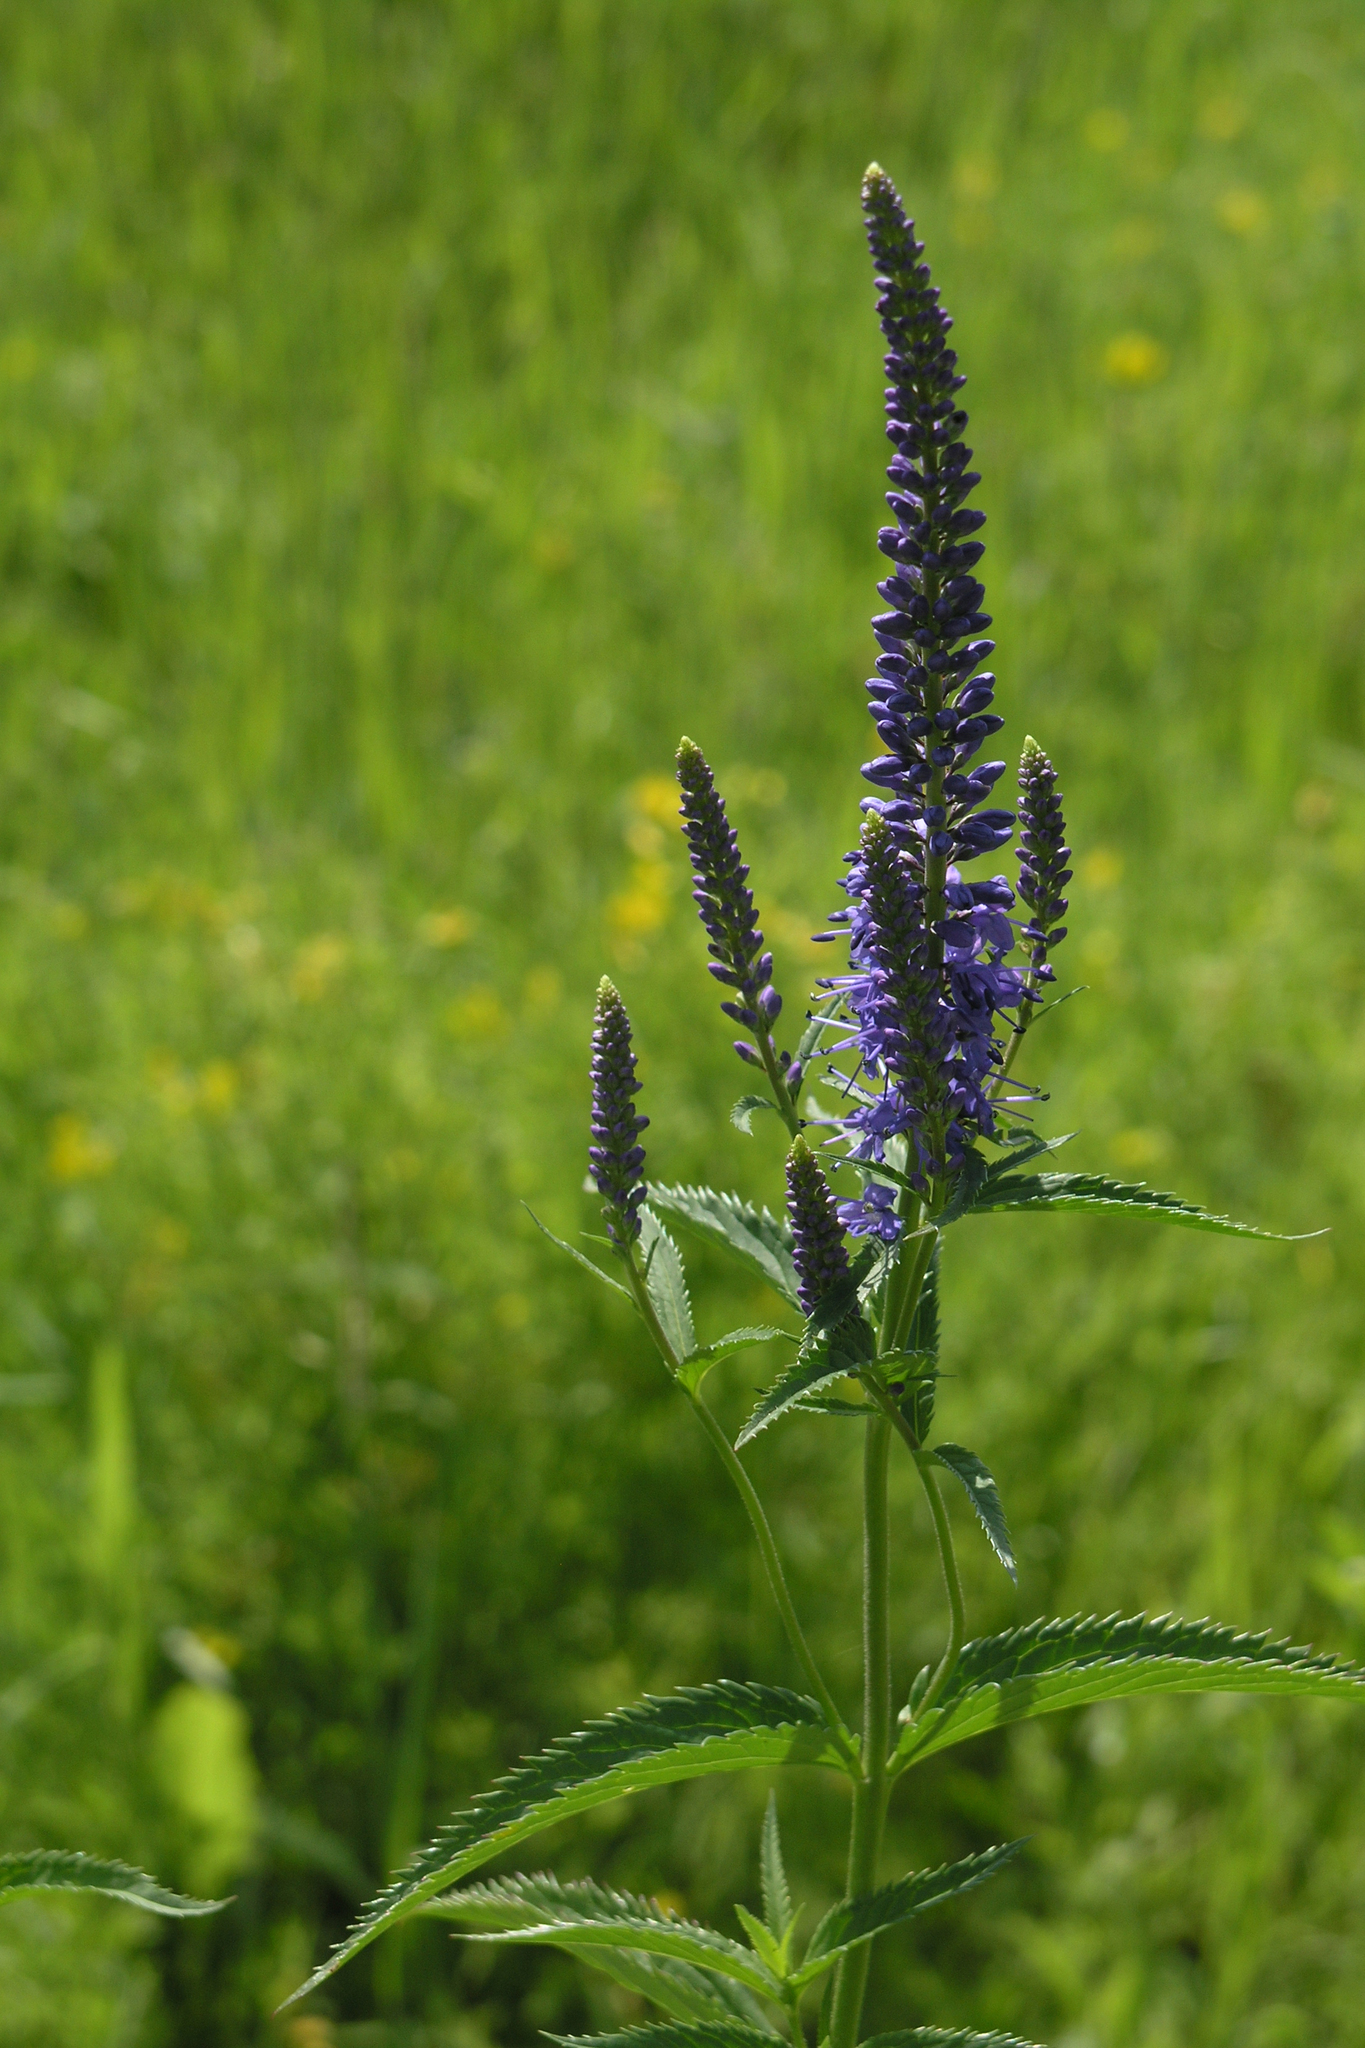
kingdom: Plantae
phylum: Tracheophyta
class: Magnoliopsida
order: Lamiales
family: Plantaginaceae
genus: Veronica
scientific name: Veronica longifolia
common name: Garden speedwell
